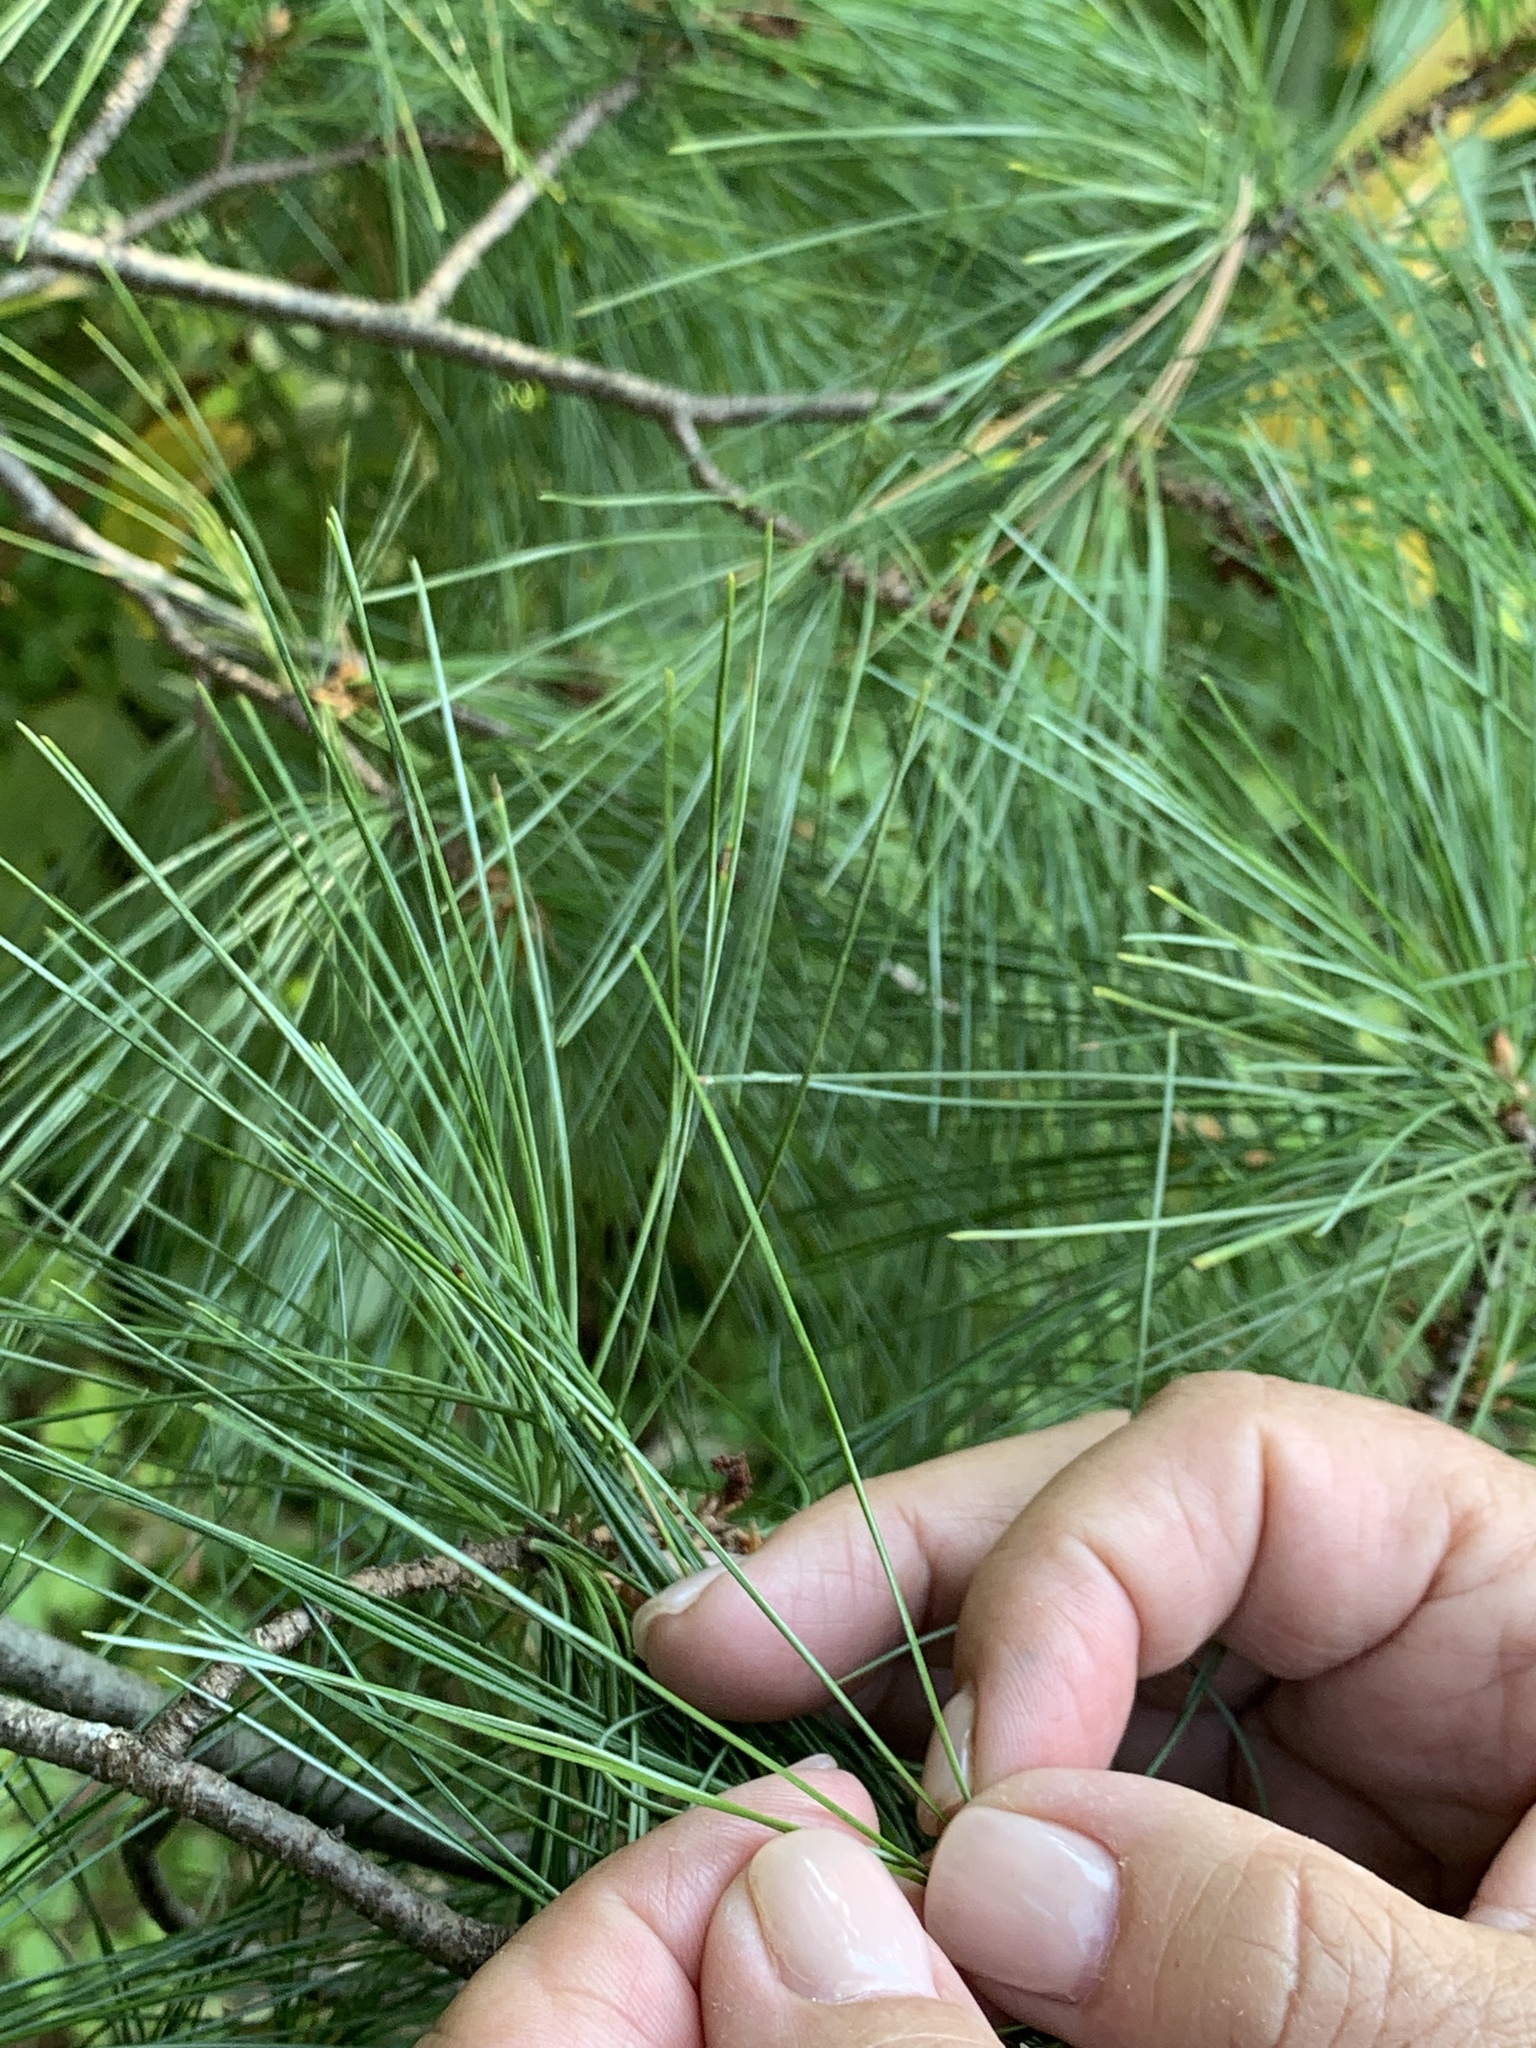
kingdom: Plantae
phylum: Tracheophyta
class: Pinopsida
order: Pinales
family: Pinaceae
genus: Pinus
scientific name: Pinus strobus
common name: Weymouth pine
